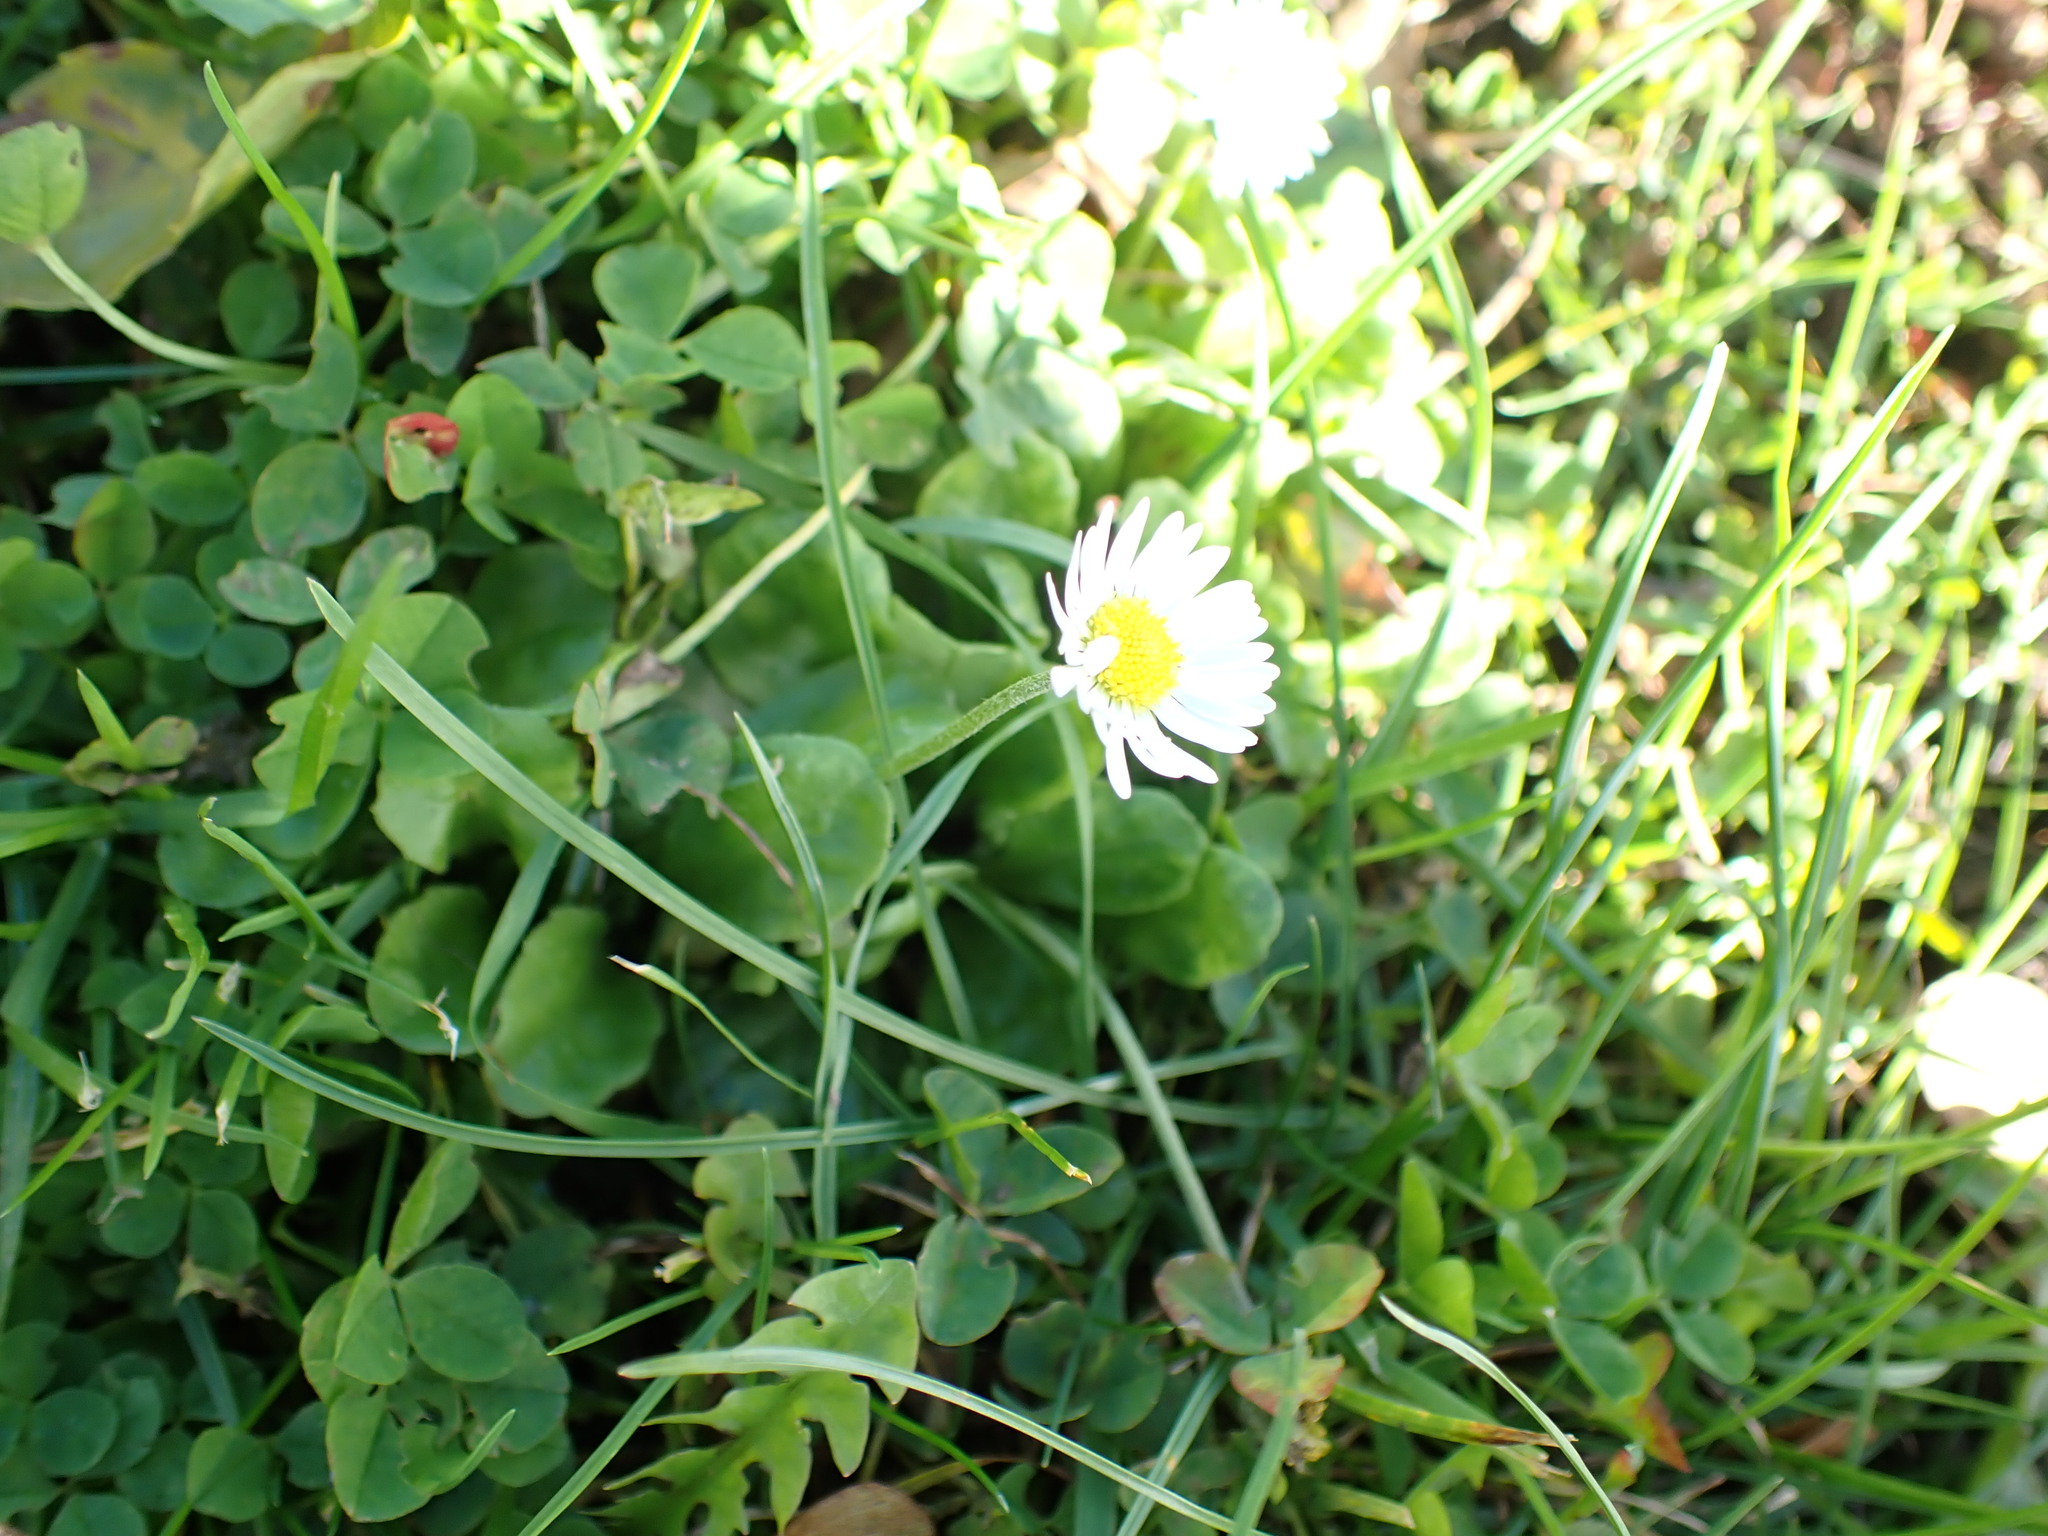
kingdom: Plantae
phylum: Tracheophyta
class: Magnoliopsida
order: Asterales
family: Asteraceae
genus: Bellis
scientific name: Bellis perennis
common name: Lawndaisy
